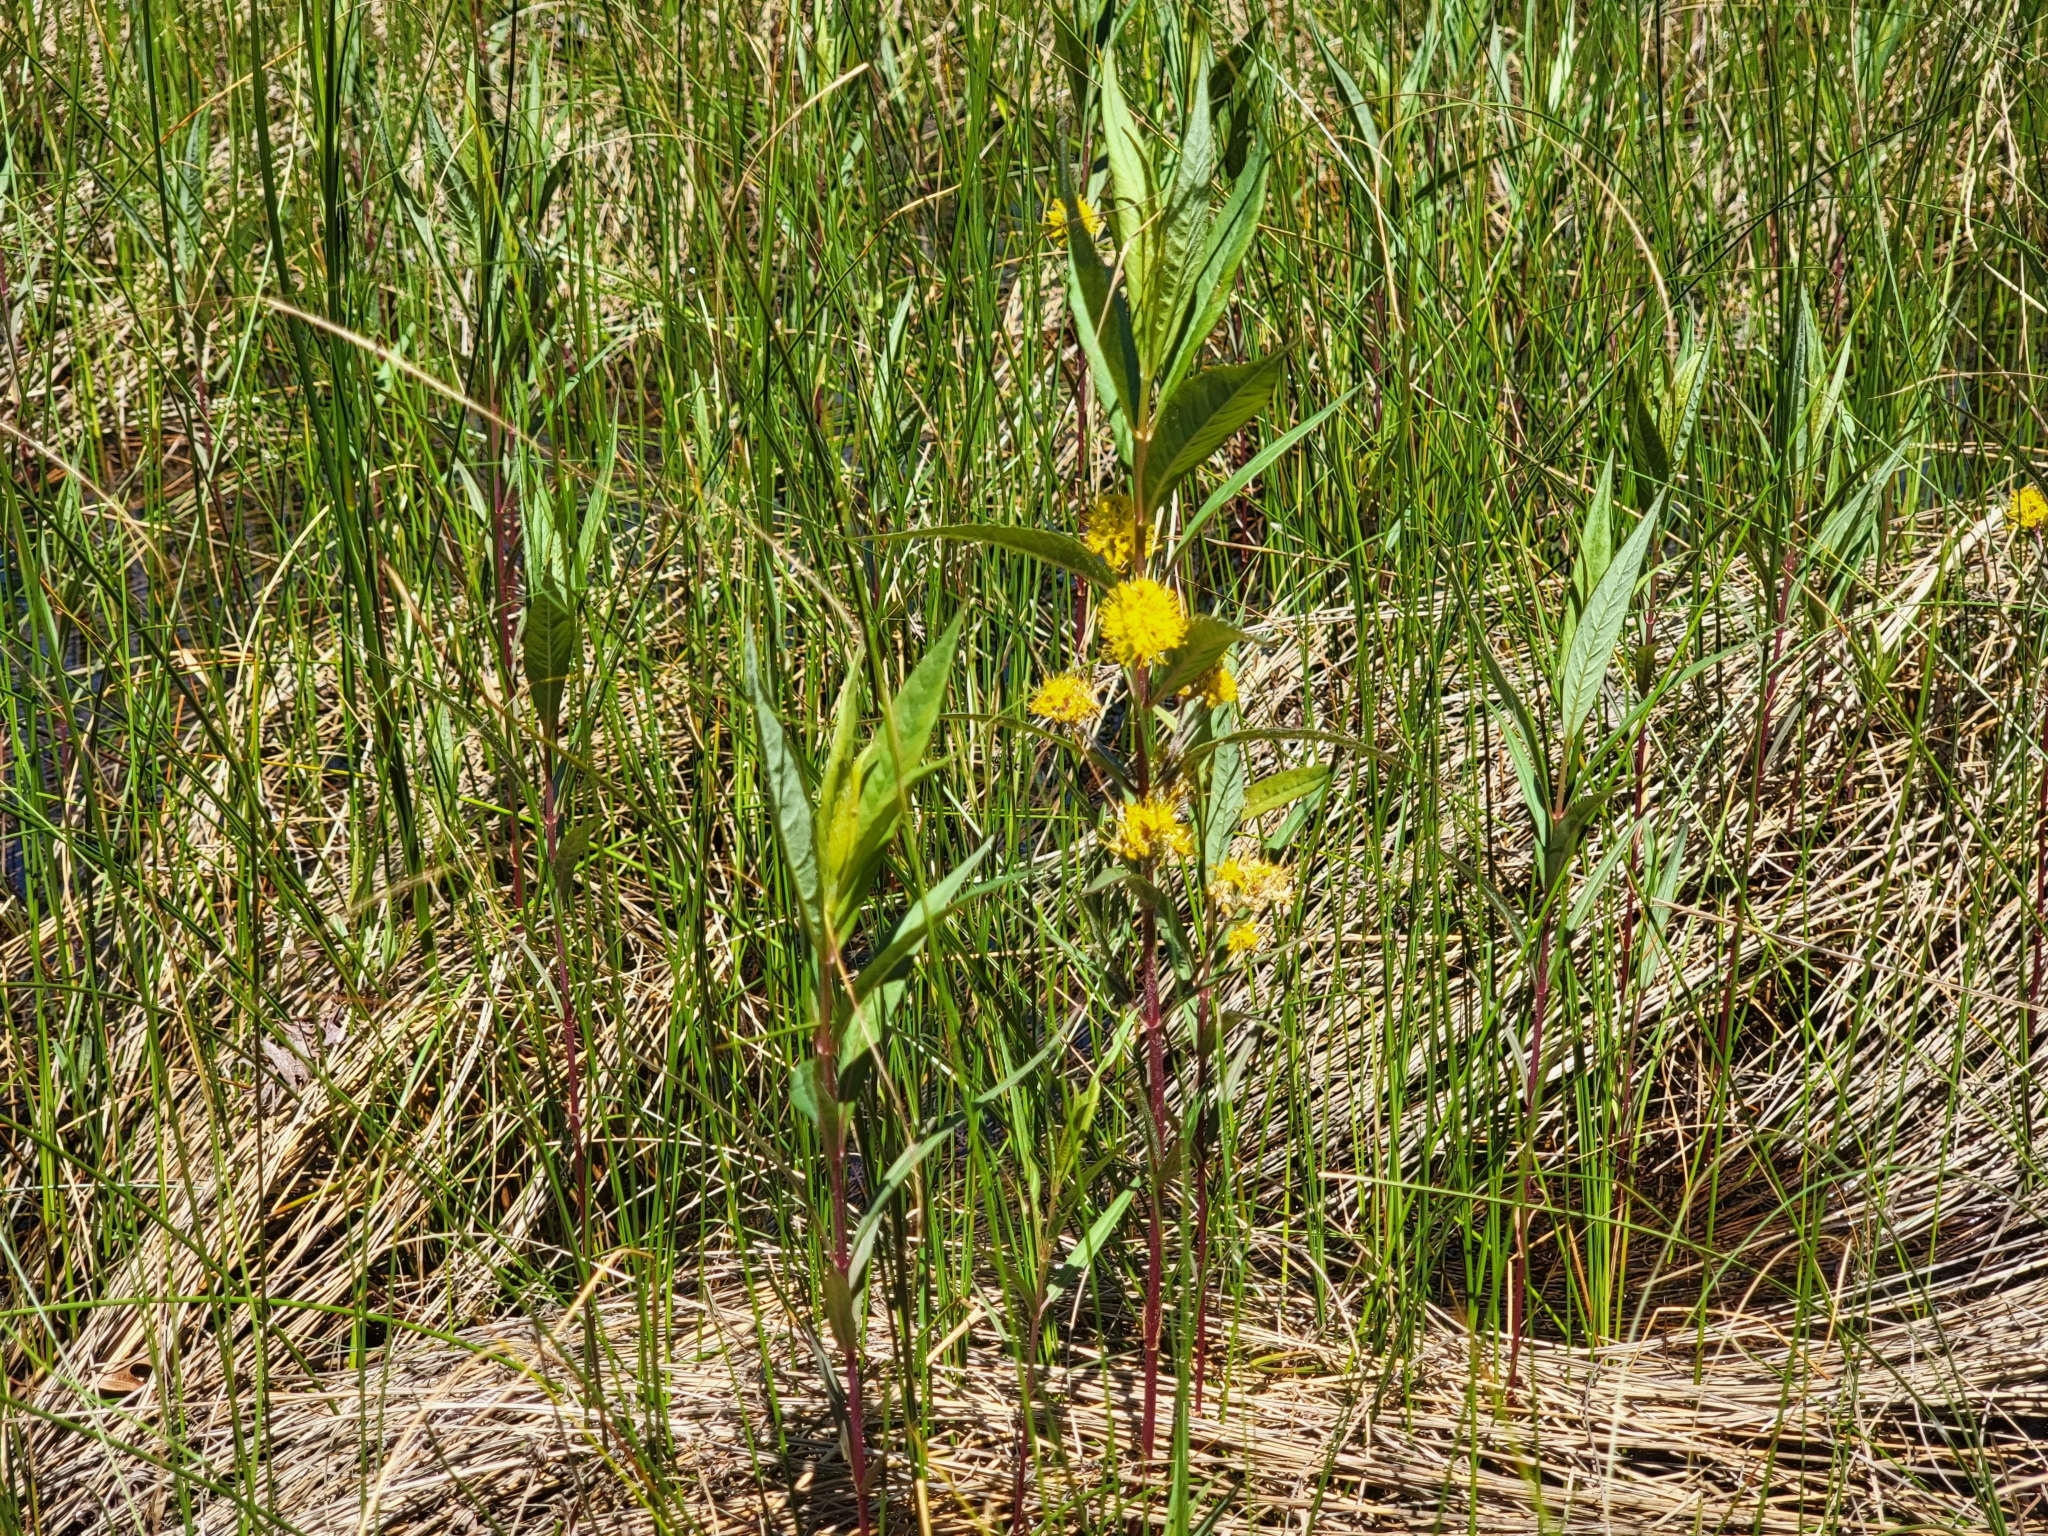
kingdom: Plantae
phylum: Tracheophyta
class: Magnoliopsida
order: Ericales
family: Primulaceae
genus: Lysimachia
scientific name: Lysimachia thyrsiflora
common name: Tufted loosestrife
